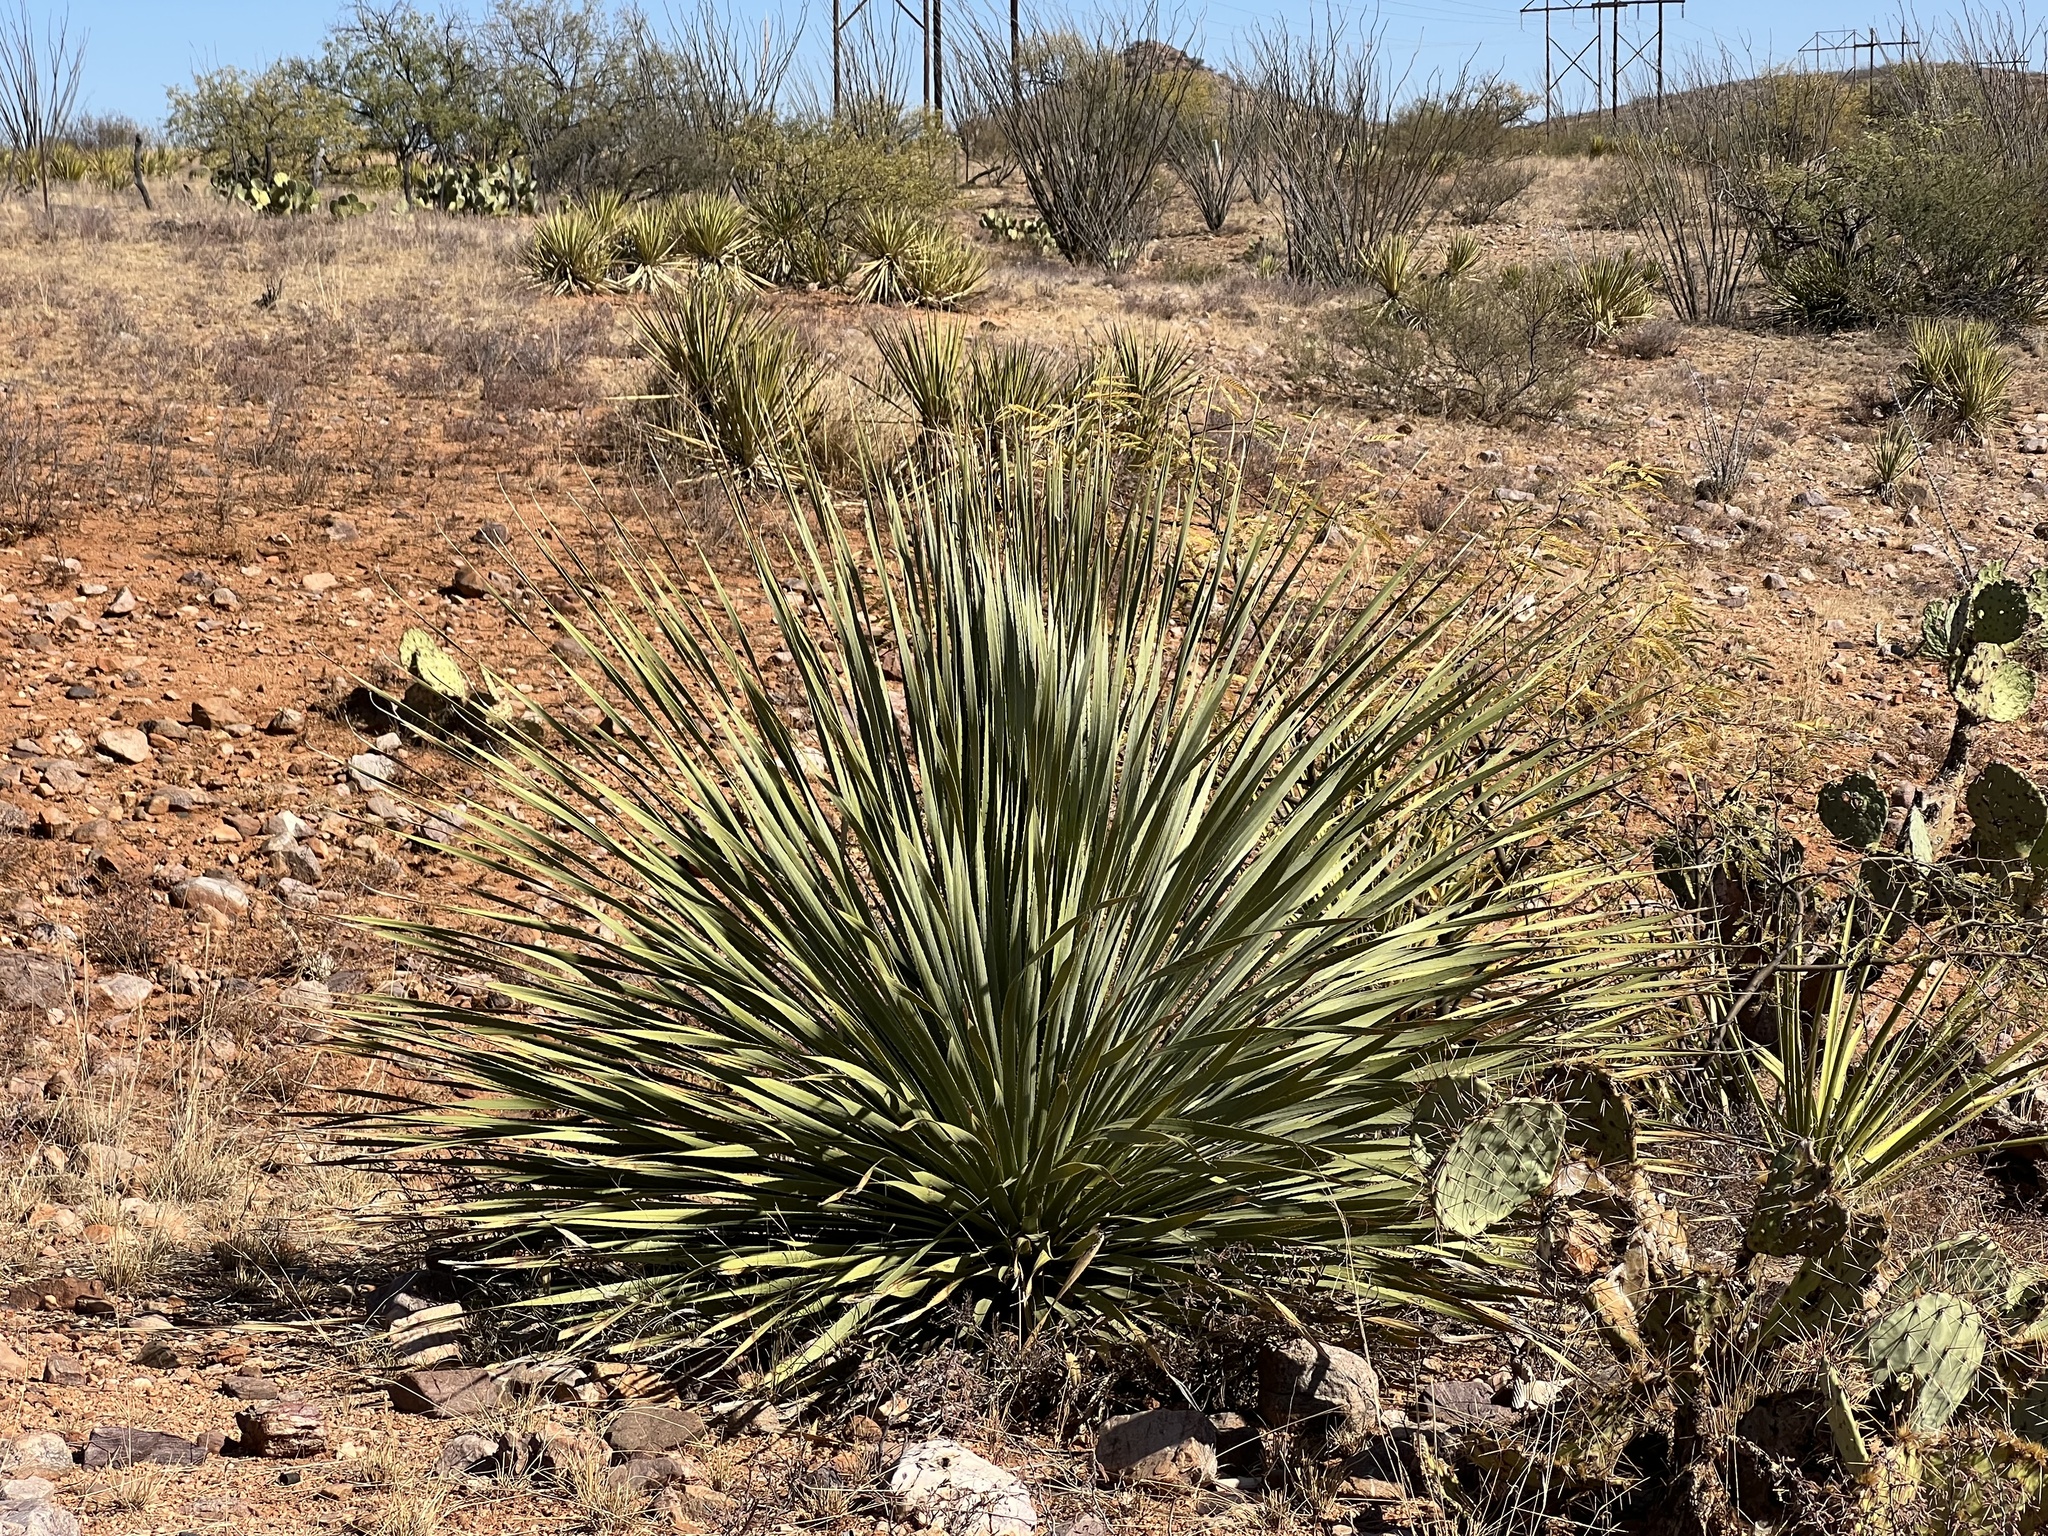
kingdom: Plantae
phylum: Tracheophyta
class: Liliopsida
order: Asparagales
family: Asparagaceae
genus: Dasylirion
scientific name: Dasylirion wheeleri
